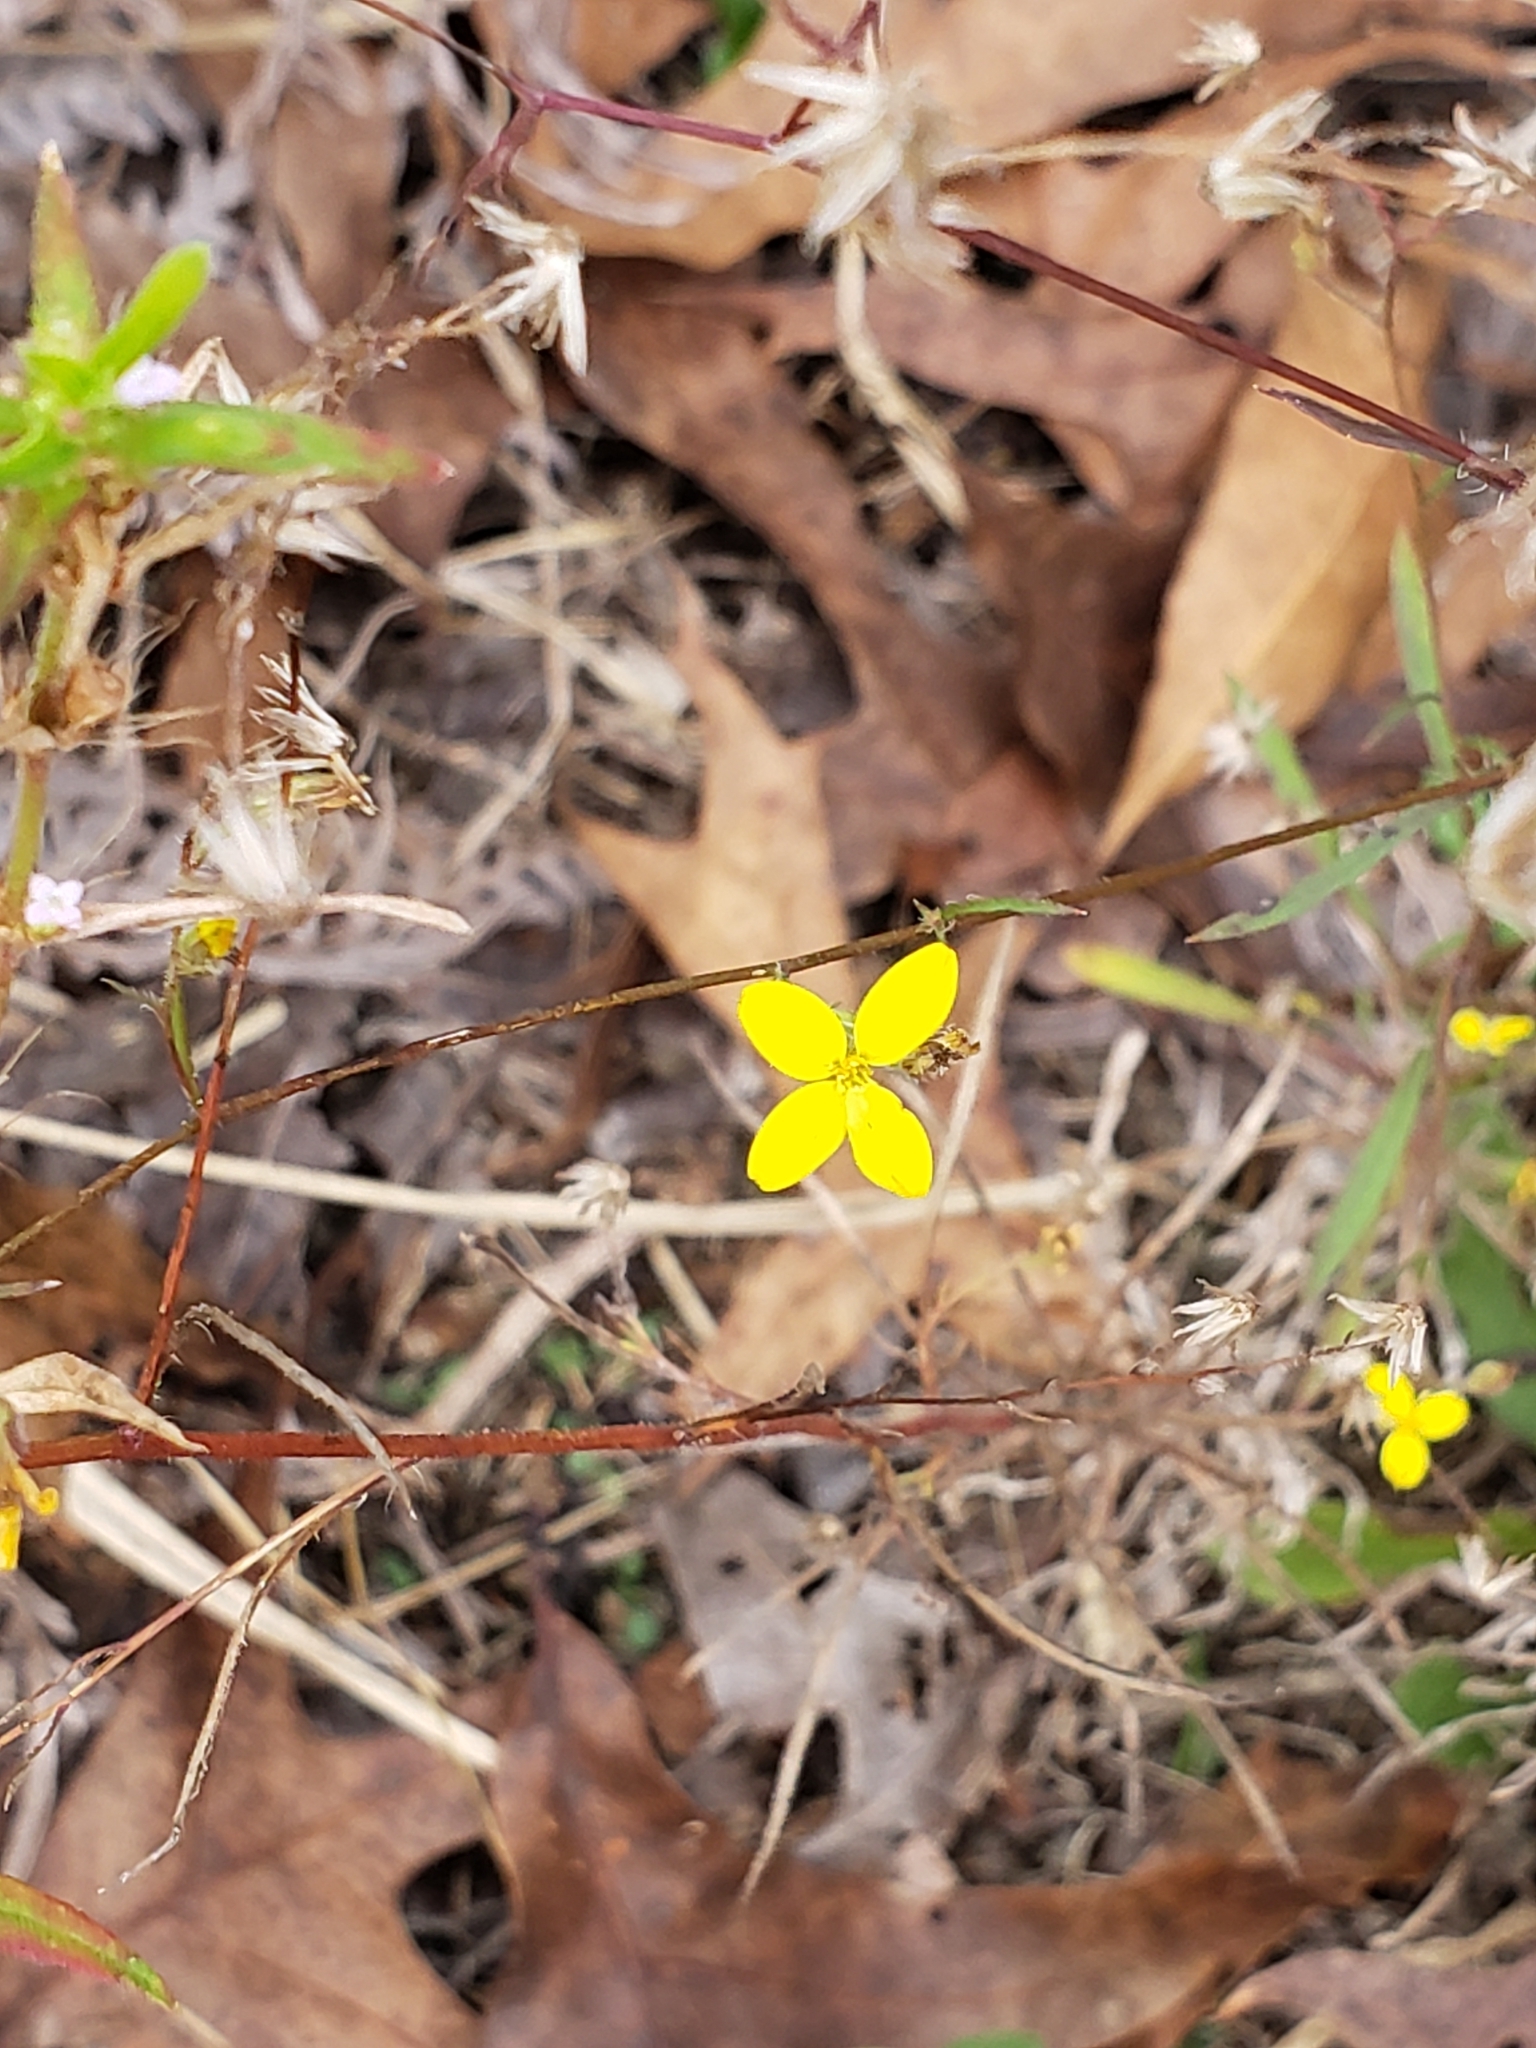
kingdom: Plantae
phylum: Tracheophyta
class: Magnoliopsida
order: Asterales
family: Asteraceae
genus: Croptilon
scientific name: Croptilon divaricatum
